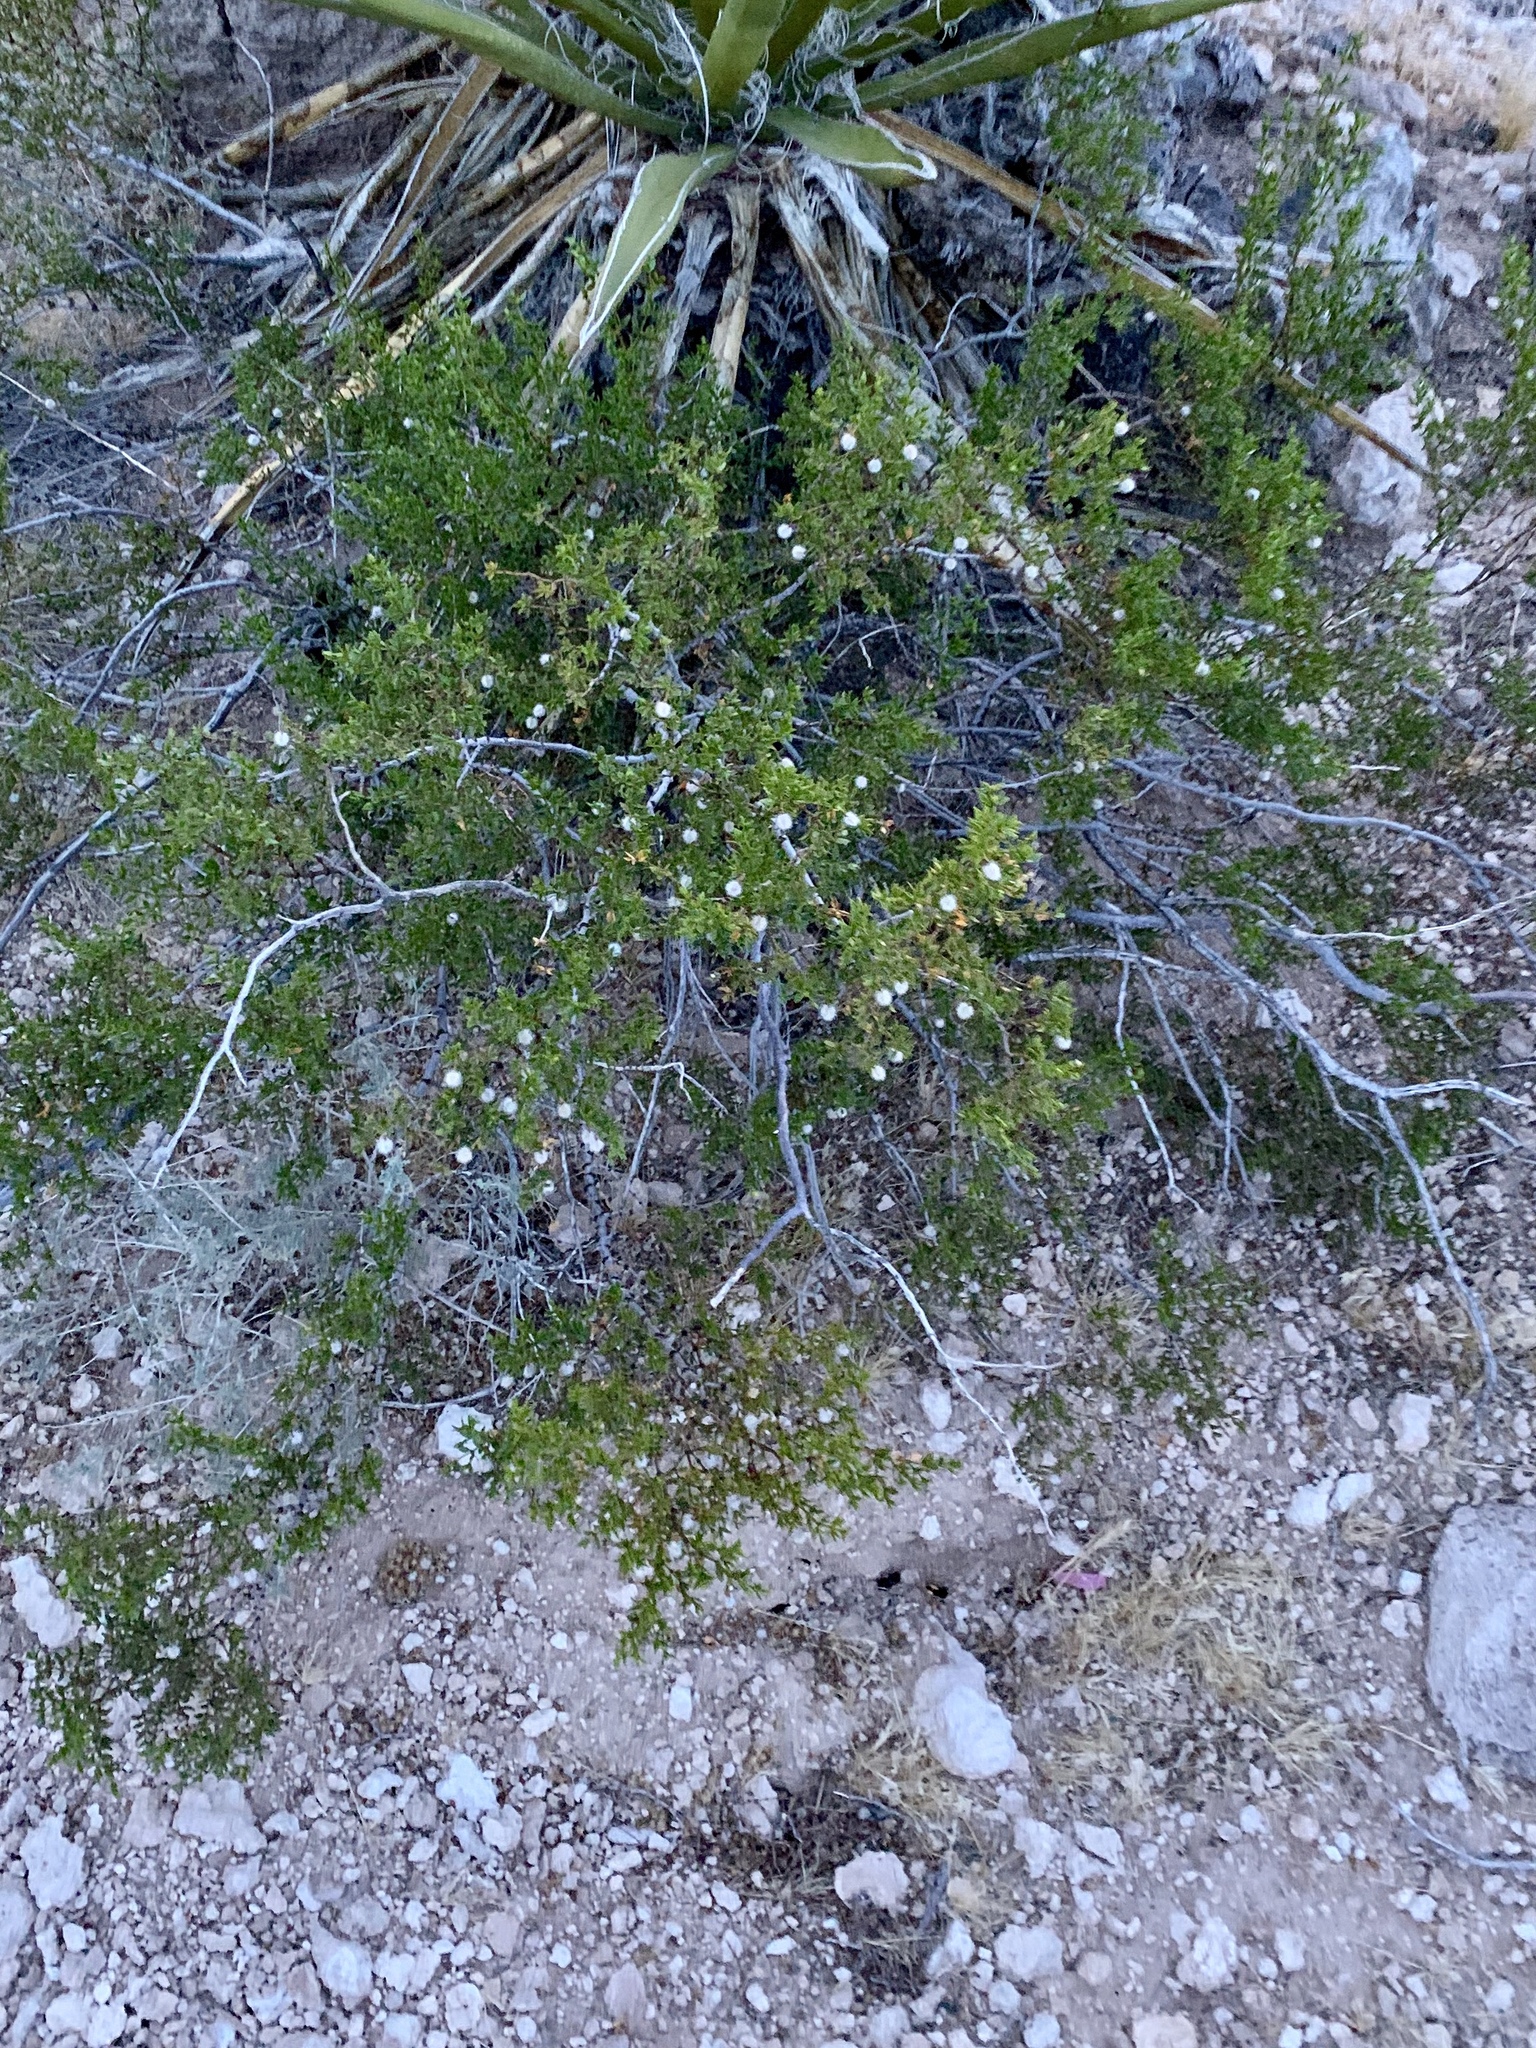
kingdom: Plantae
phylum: Tracheophyta
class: Magnoliopsida
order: Zygophyllales
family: Zygophyllaceae
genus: Larrea
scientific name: Larrea tridentata
